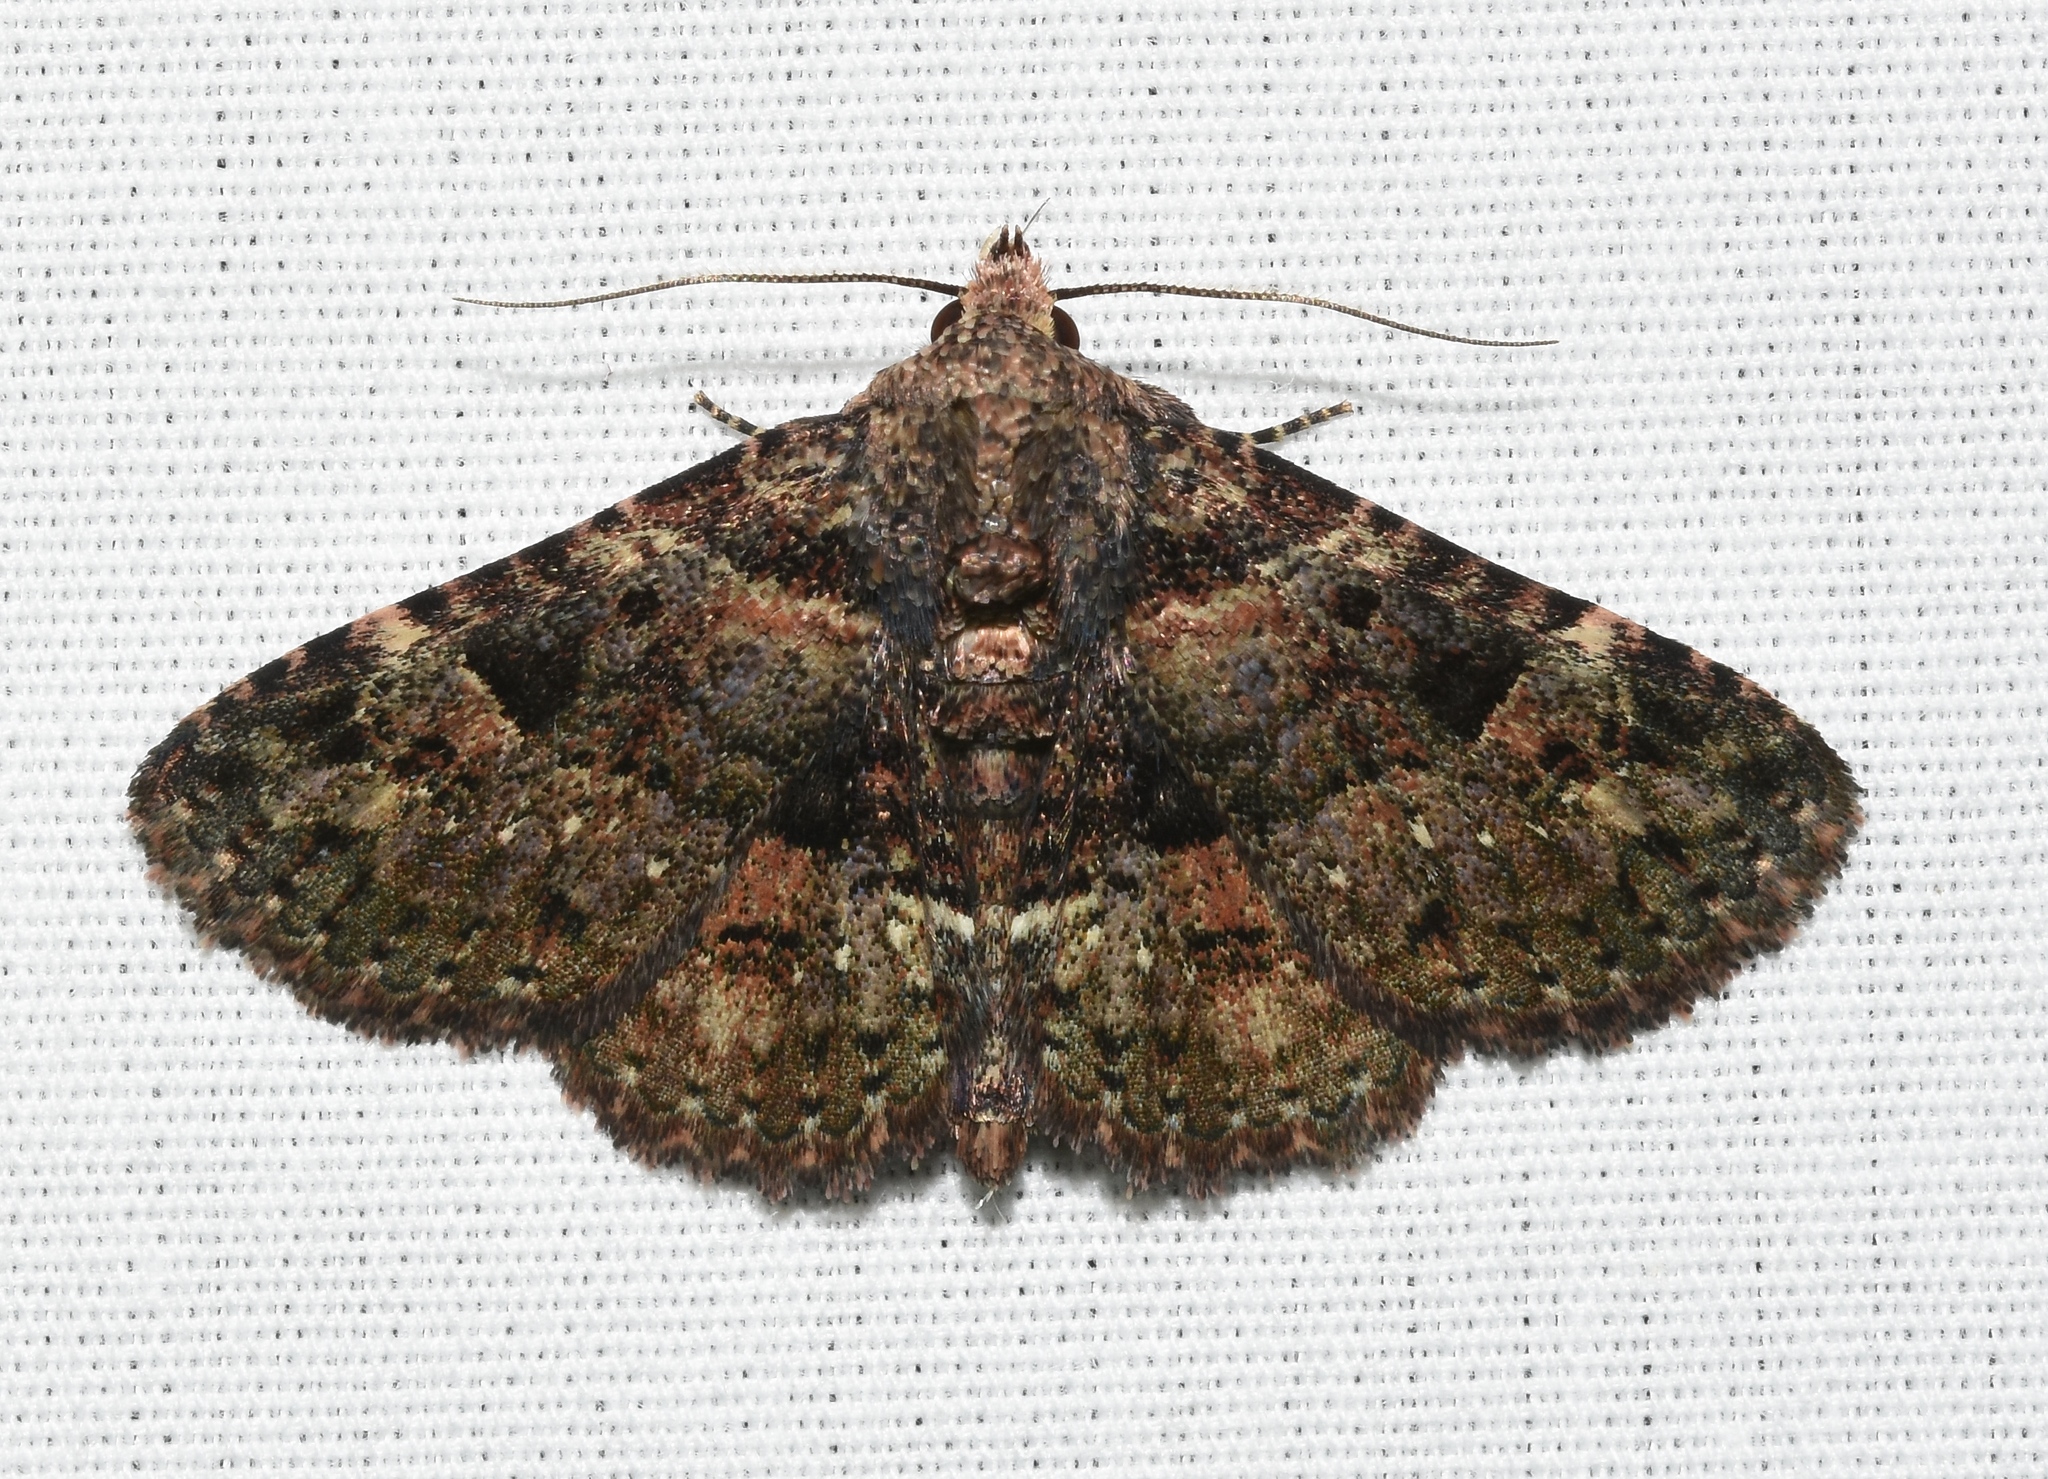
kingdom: Animalia
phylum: Arthropoda
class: Insecta
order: Lepidoptera
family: Erebidae
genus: Metalectra
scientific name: Metalectra discalis
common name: Common fungus moth
